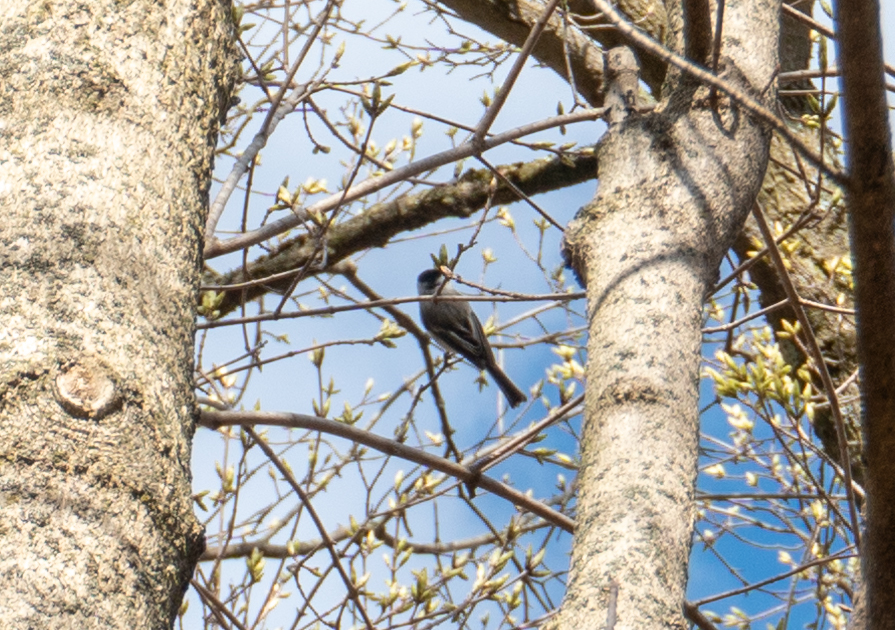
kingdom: Animalia
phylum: Chordata
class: Aves
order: Passeriformes
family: Paridae
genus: Poecile
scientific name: Poecile atricapillus
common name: Black-capped chickadee
